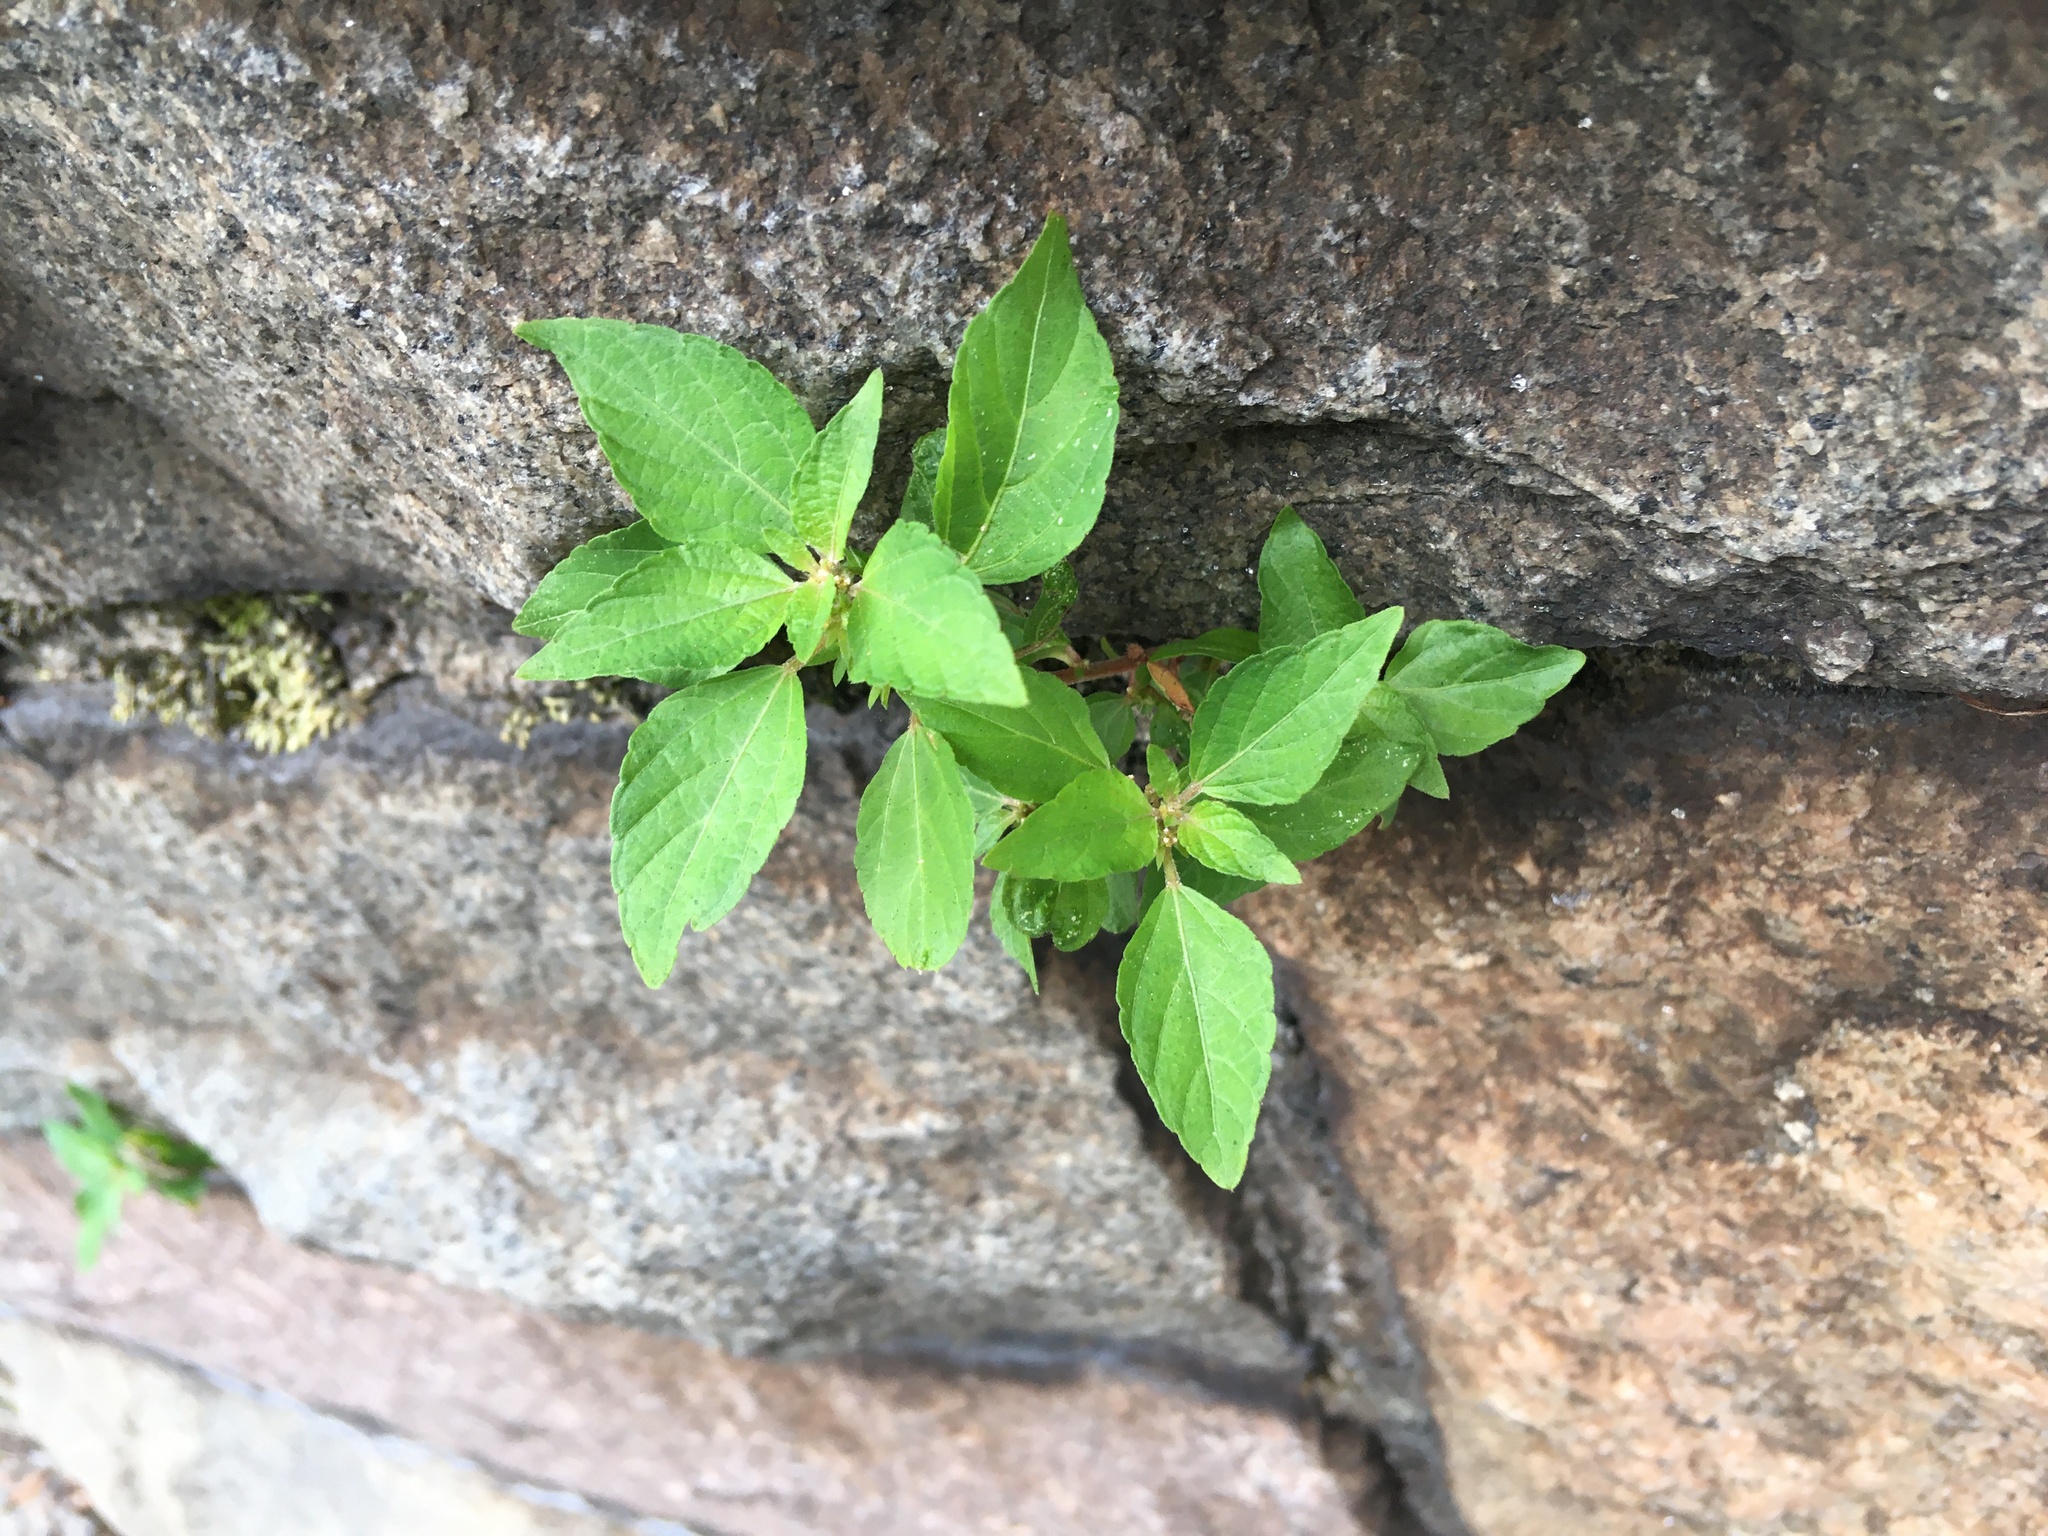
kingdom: Plantae
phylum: Tracheophyta
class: Magnoliopsida
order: Malpighiales
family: Euphorbiaceae
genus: Acalypha
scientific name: Acalypha rhomboidea
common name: Rhombic copperleaf
